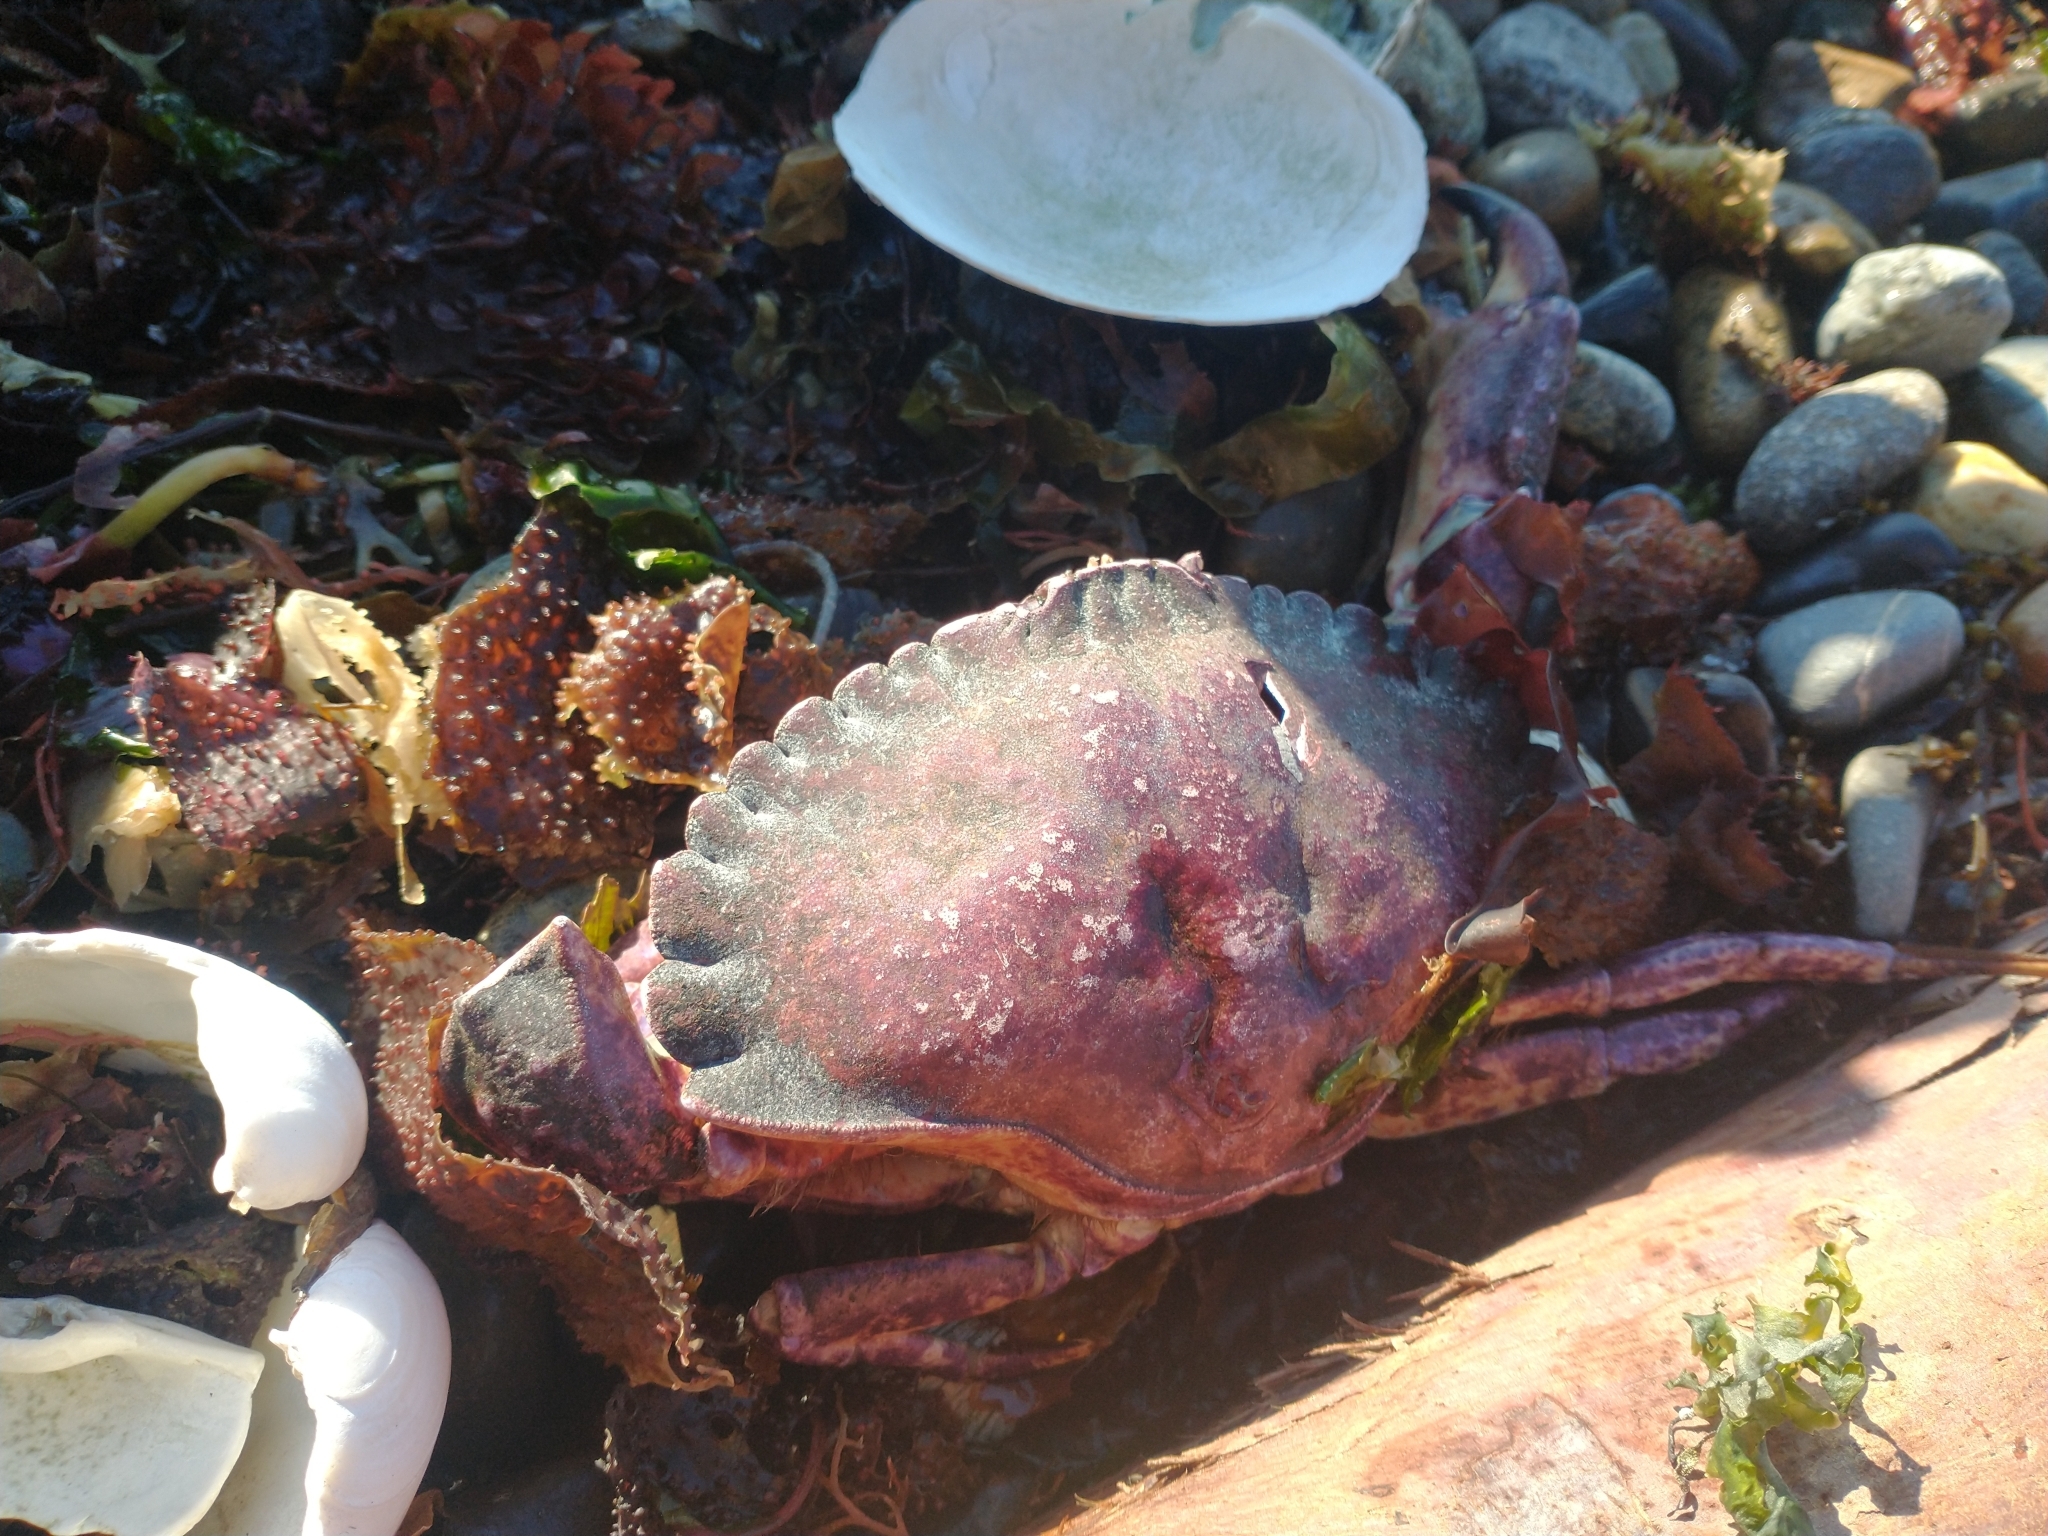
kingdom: Animalia
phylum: Arthropoda
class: Malacostraca
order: Decapoda
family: Cancridae
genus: Cancer
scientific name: Cancer productus
